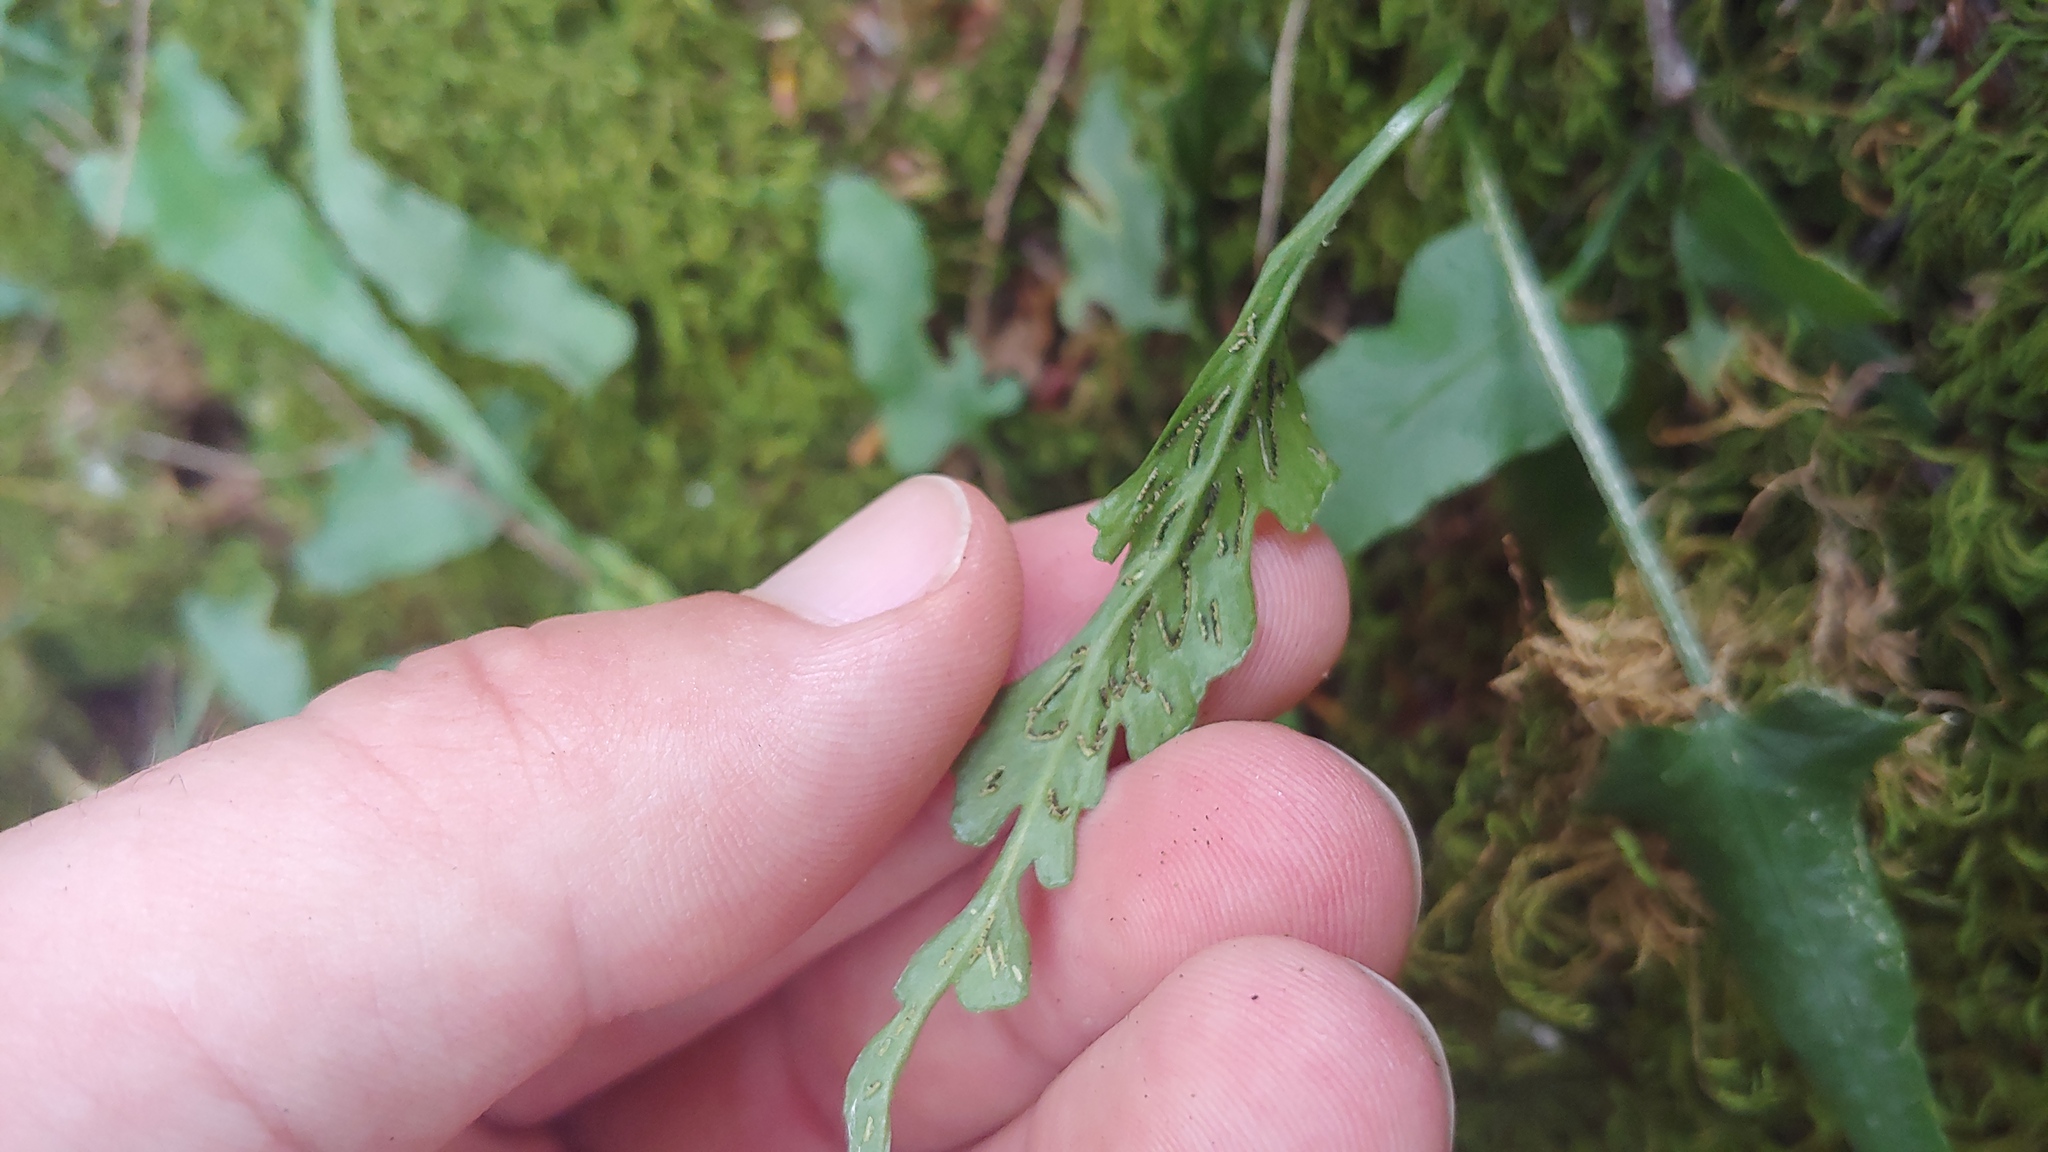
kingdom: Plantae
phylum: Tracheophyta
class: Polypodiopsida
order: Polypodiales
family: Aspleniaceae
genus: Asplenium
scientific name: Asplenium rhizophyllum
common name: Walking fern
